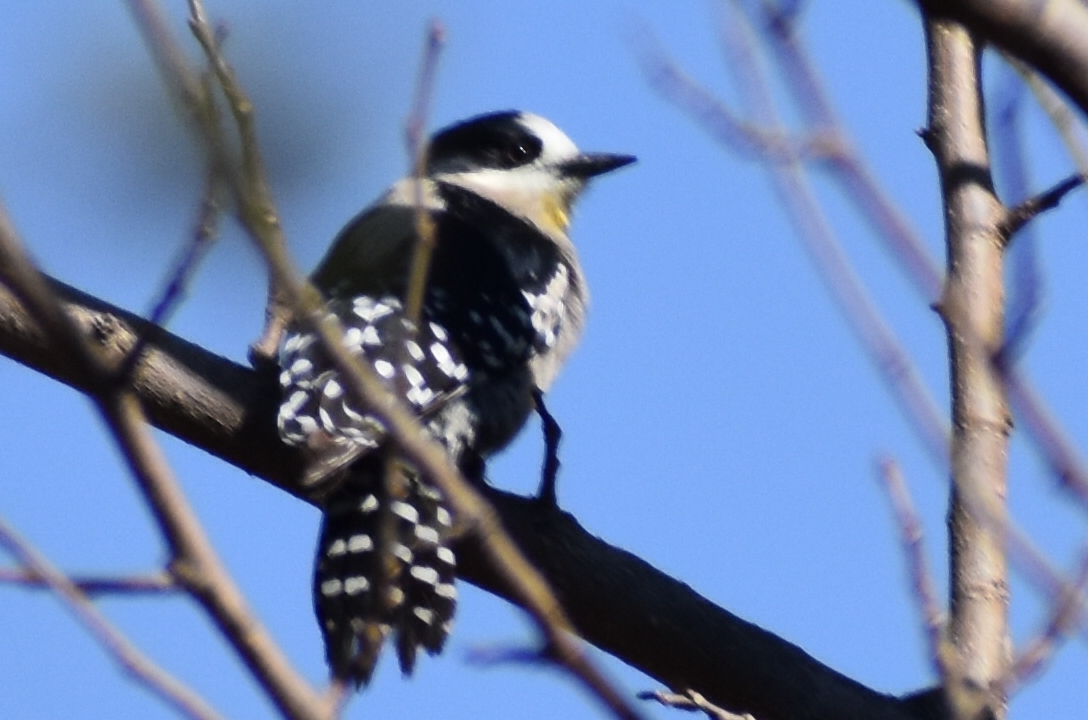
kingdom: Animalia
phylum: Chordata
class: Aves
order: Piciformes
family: Picidae
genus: Melanerpes
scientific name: Melanerpes cactorum
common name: White-fronted woodpecker
